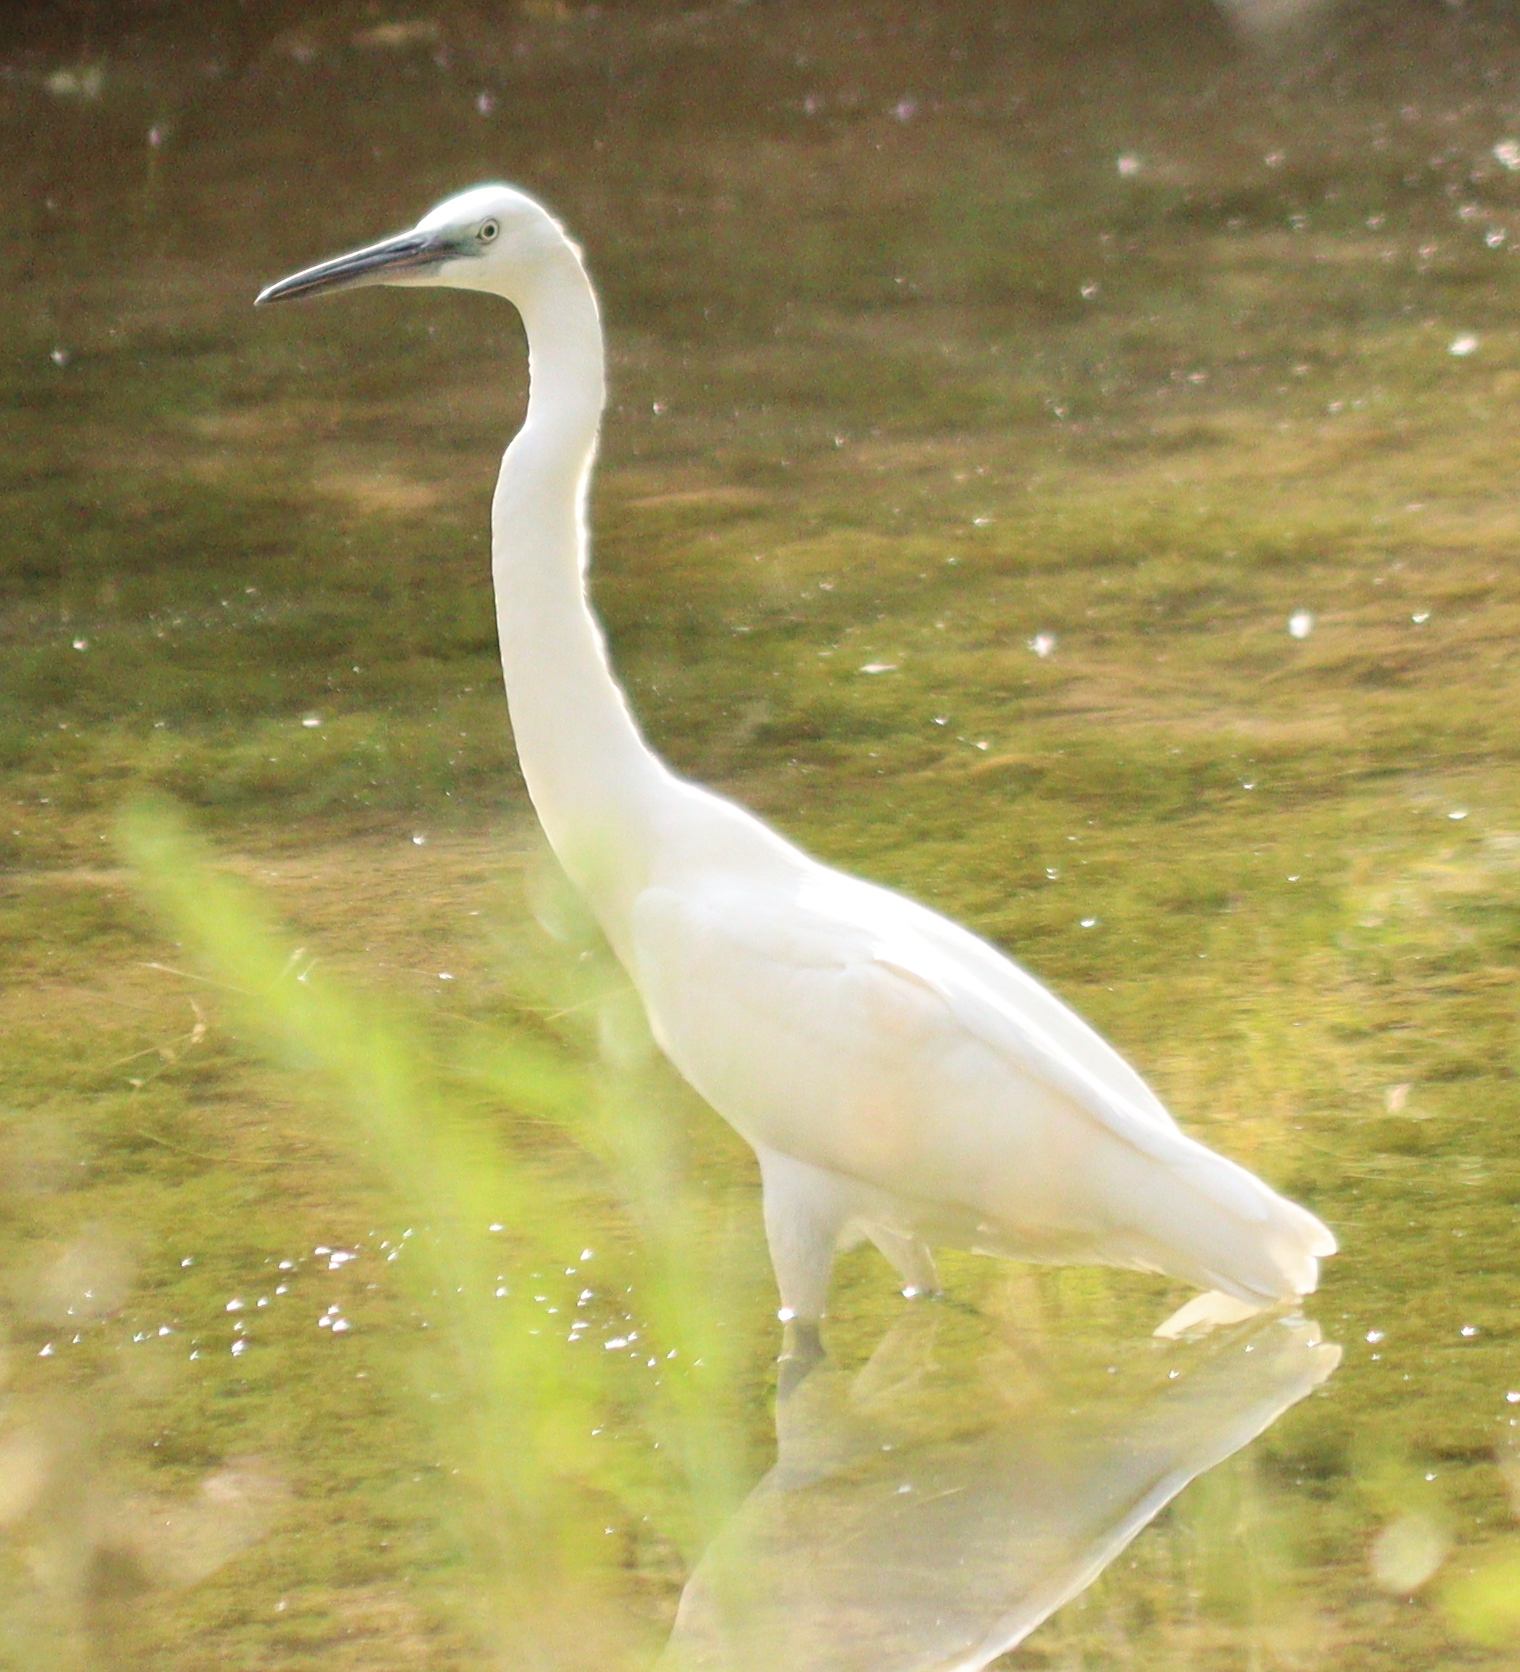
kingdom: Animalia
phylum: Chordata
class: Aves
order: Pelecaniformes
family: Ardeidae
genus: Egretta
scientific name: Egretta garzetta
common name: Little egret
